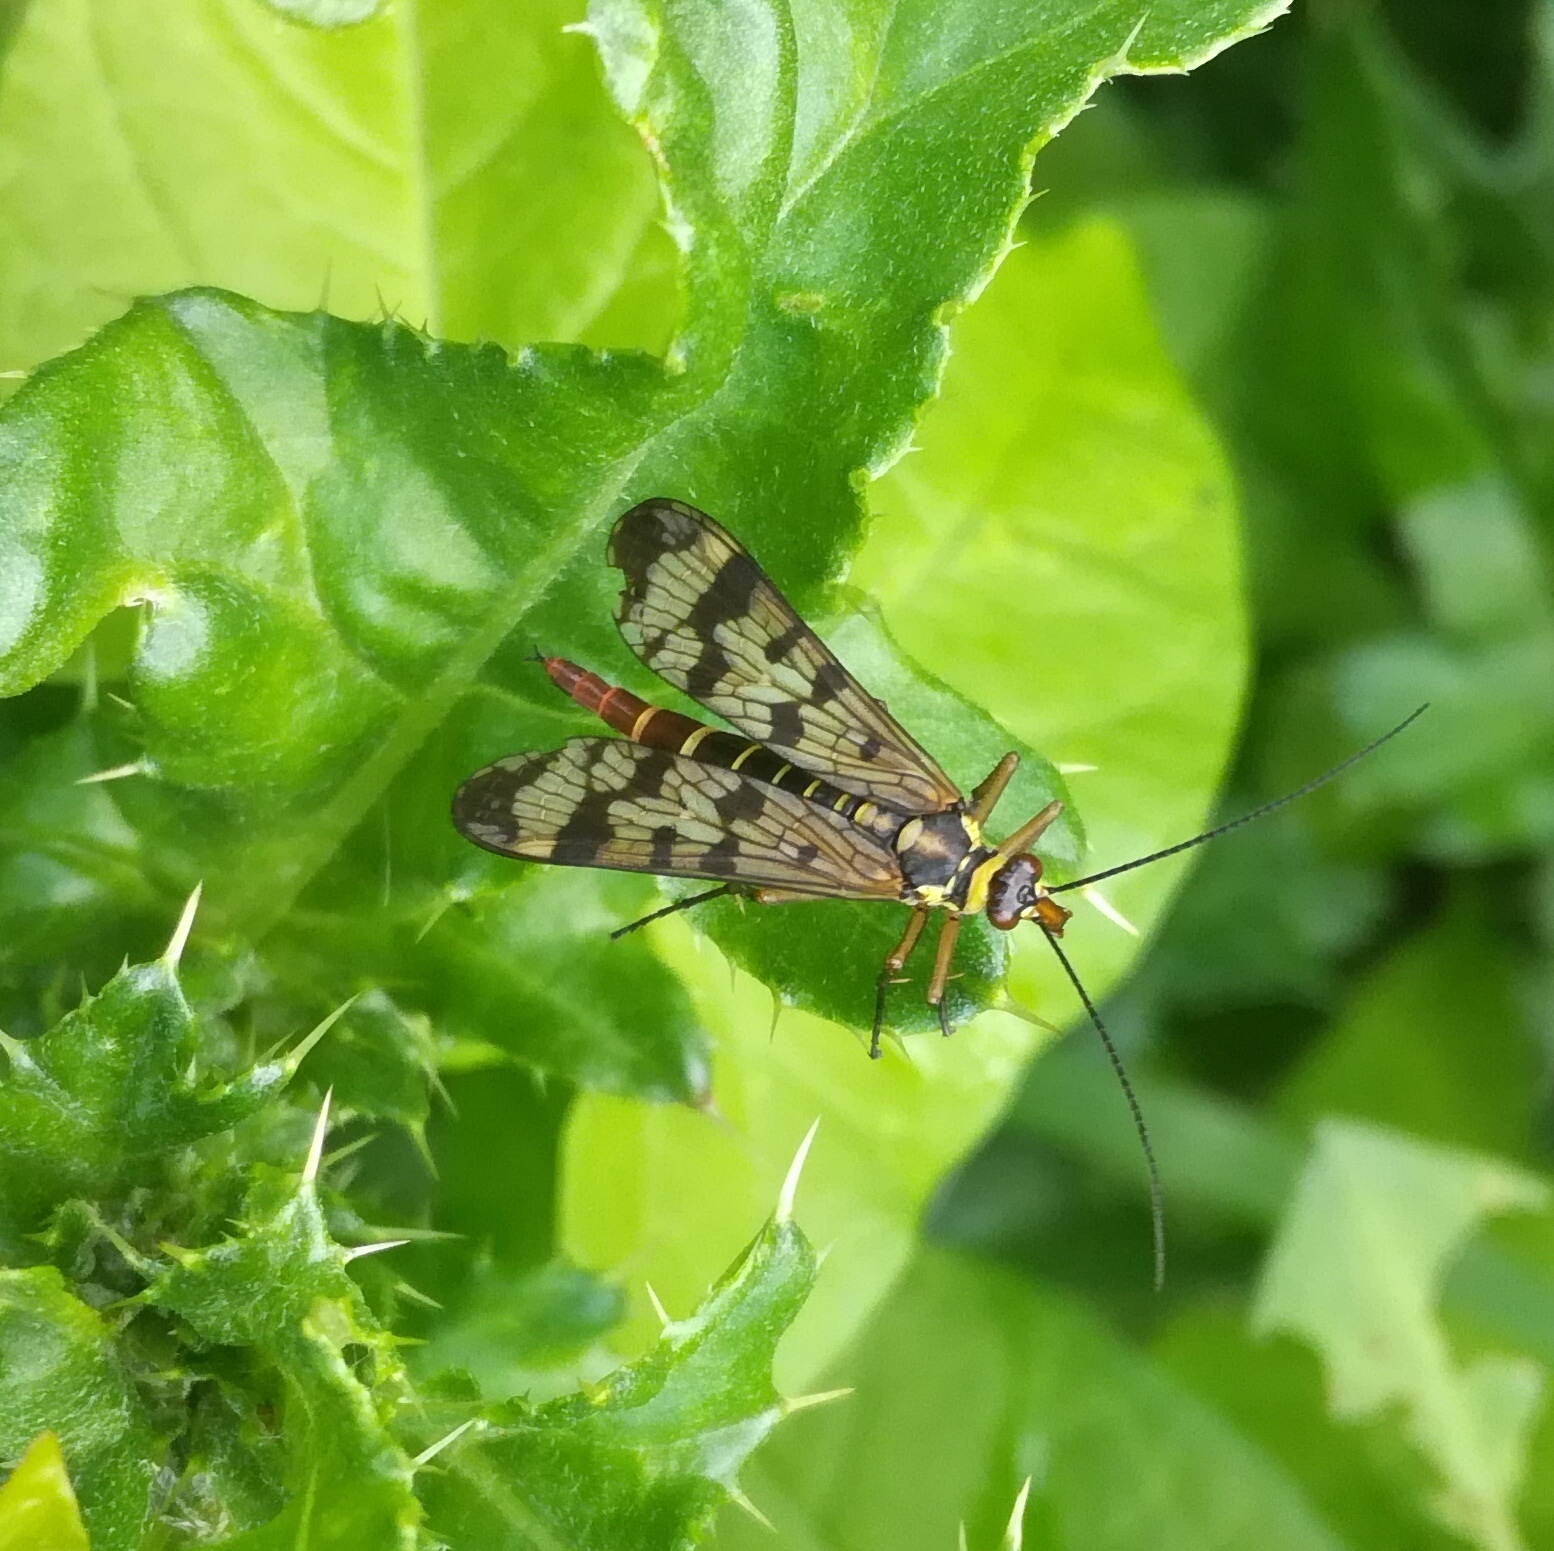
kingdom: Animalia
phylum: Arthropoda
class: Insecta
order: Mecoptera
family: Panorpidae
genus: Panorpa
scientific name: Panorpa communis
